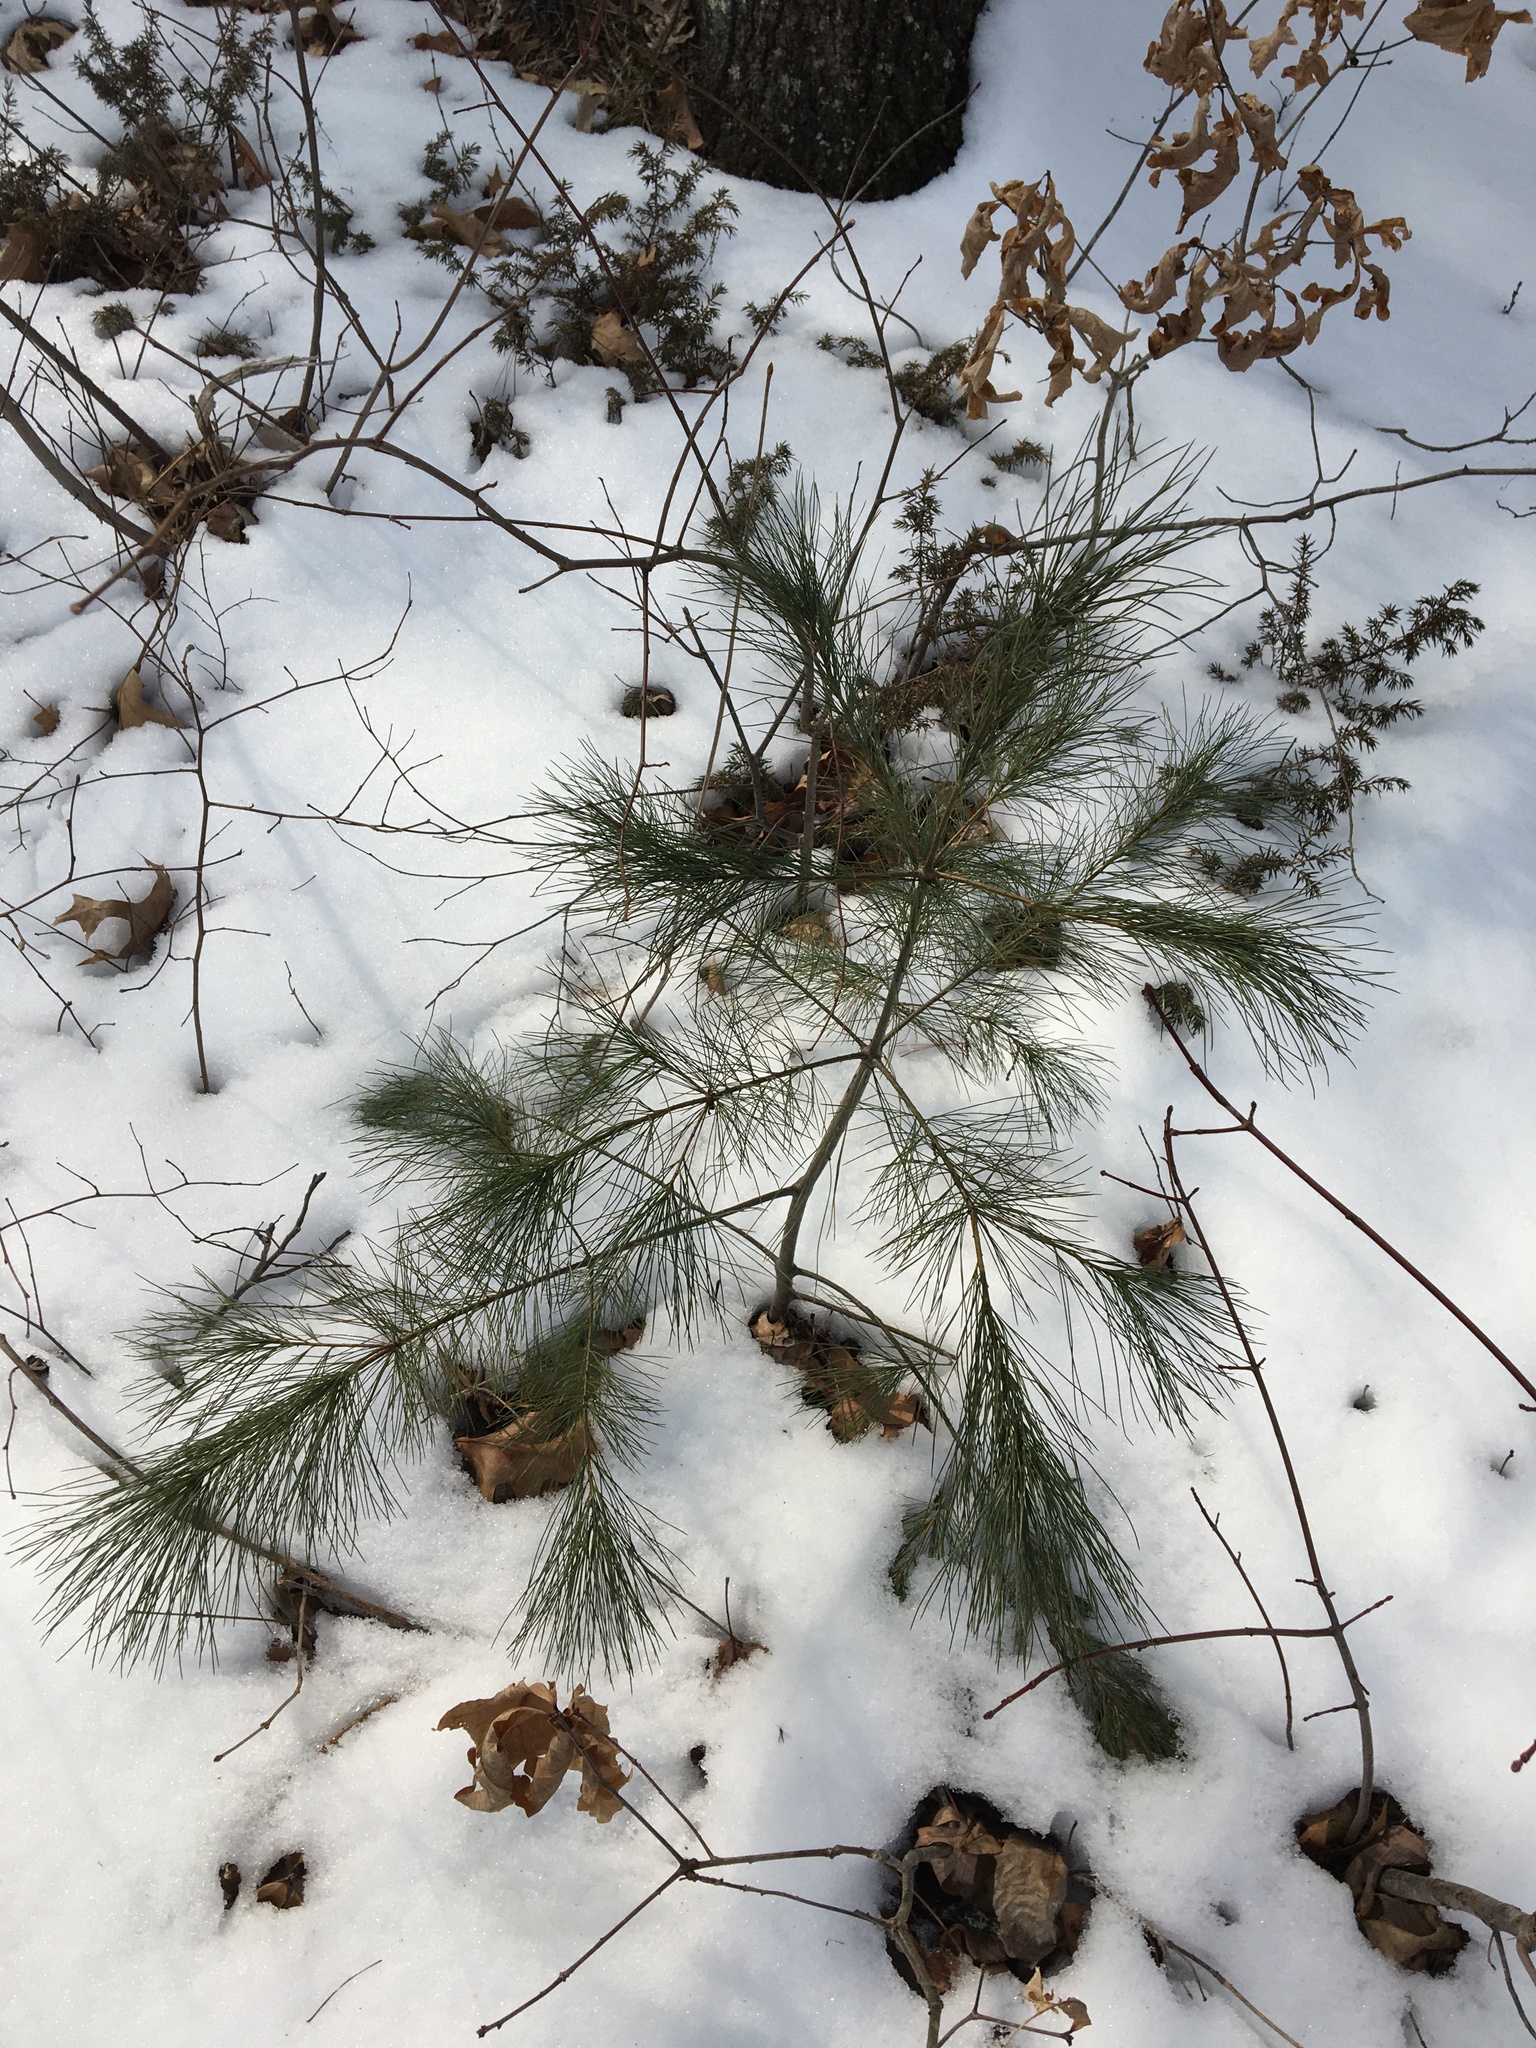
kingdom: Plantae
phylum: Tracheophyta
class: Pinopsida
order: Pinales
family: Pinaceae
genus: Pinus
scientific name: Pinus strobus
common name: Weymouth pine
